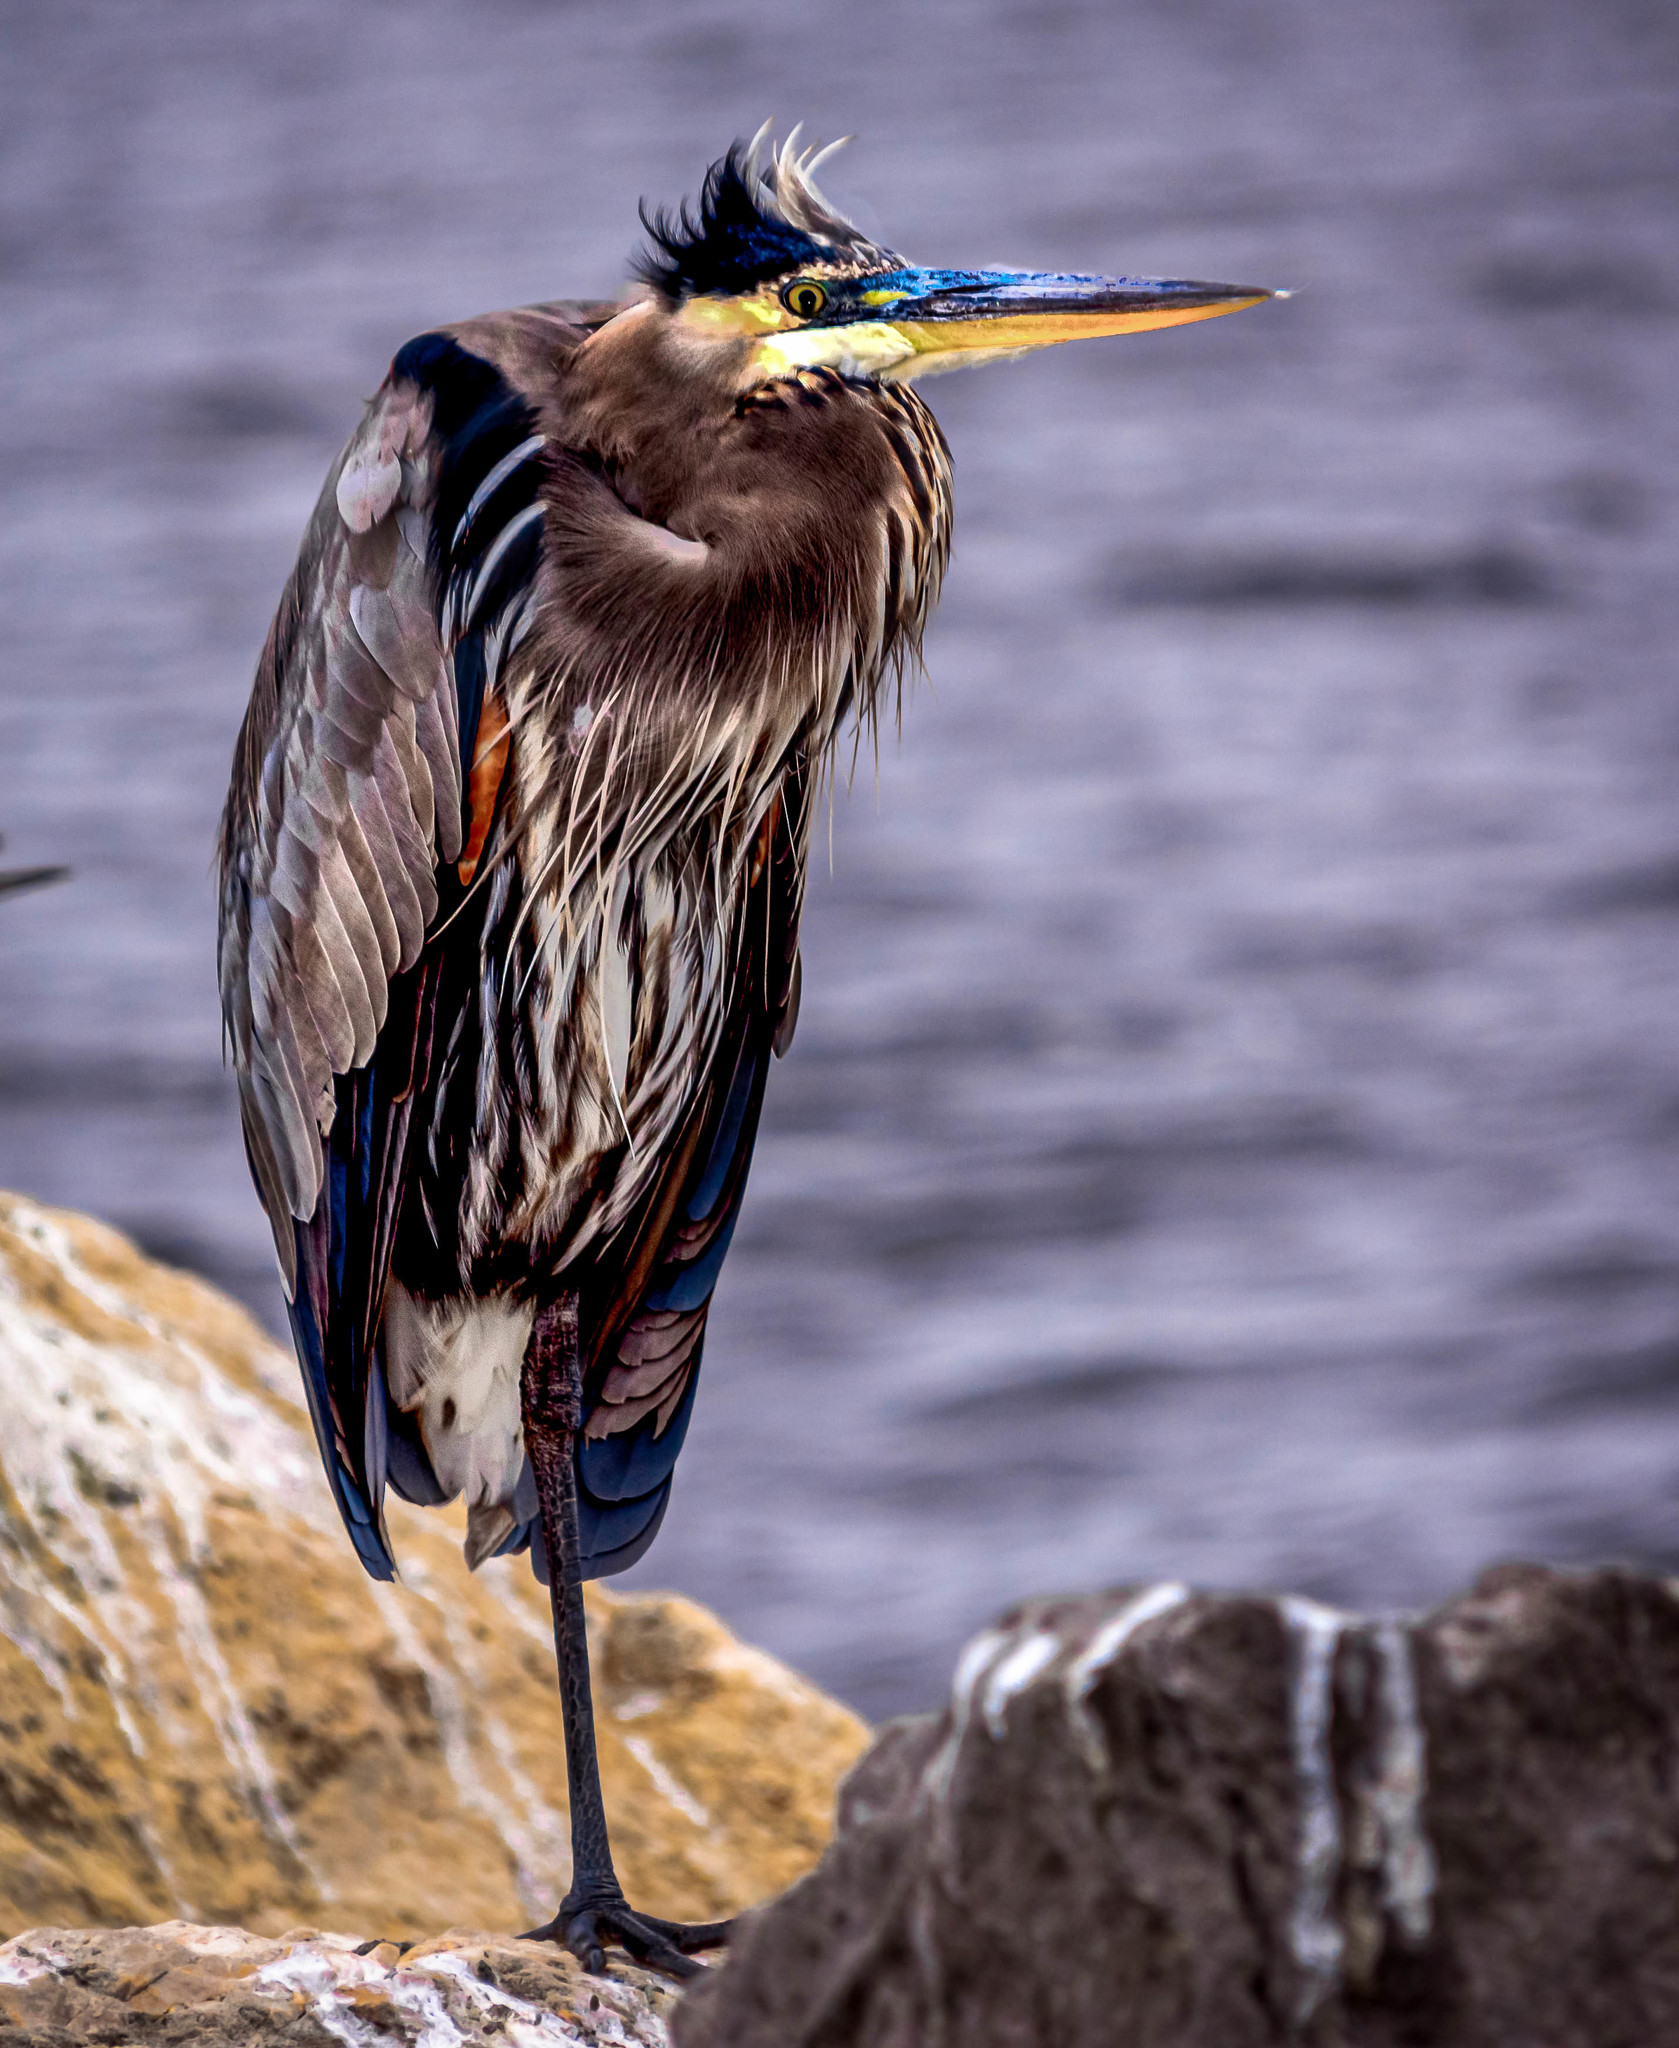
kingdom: Animalia
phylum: Chordata
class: Aves
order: Pelecaniformes
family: Ardeidae
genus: Ardea
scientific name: Ardea herodias
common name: Great blue heron
